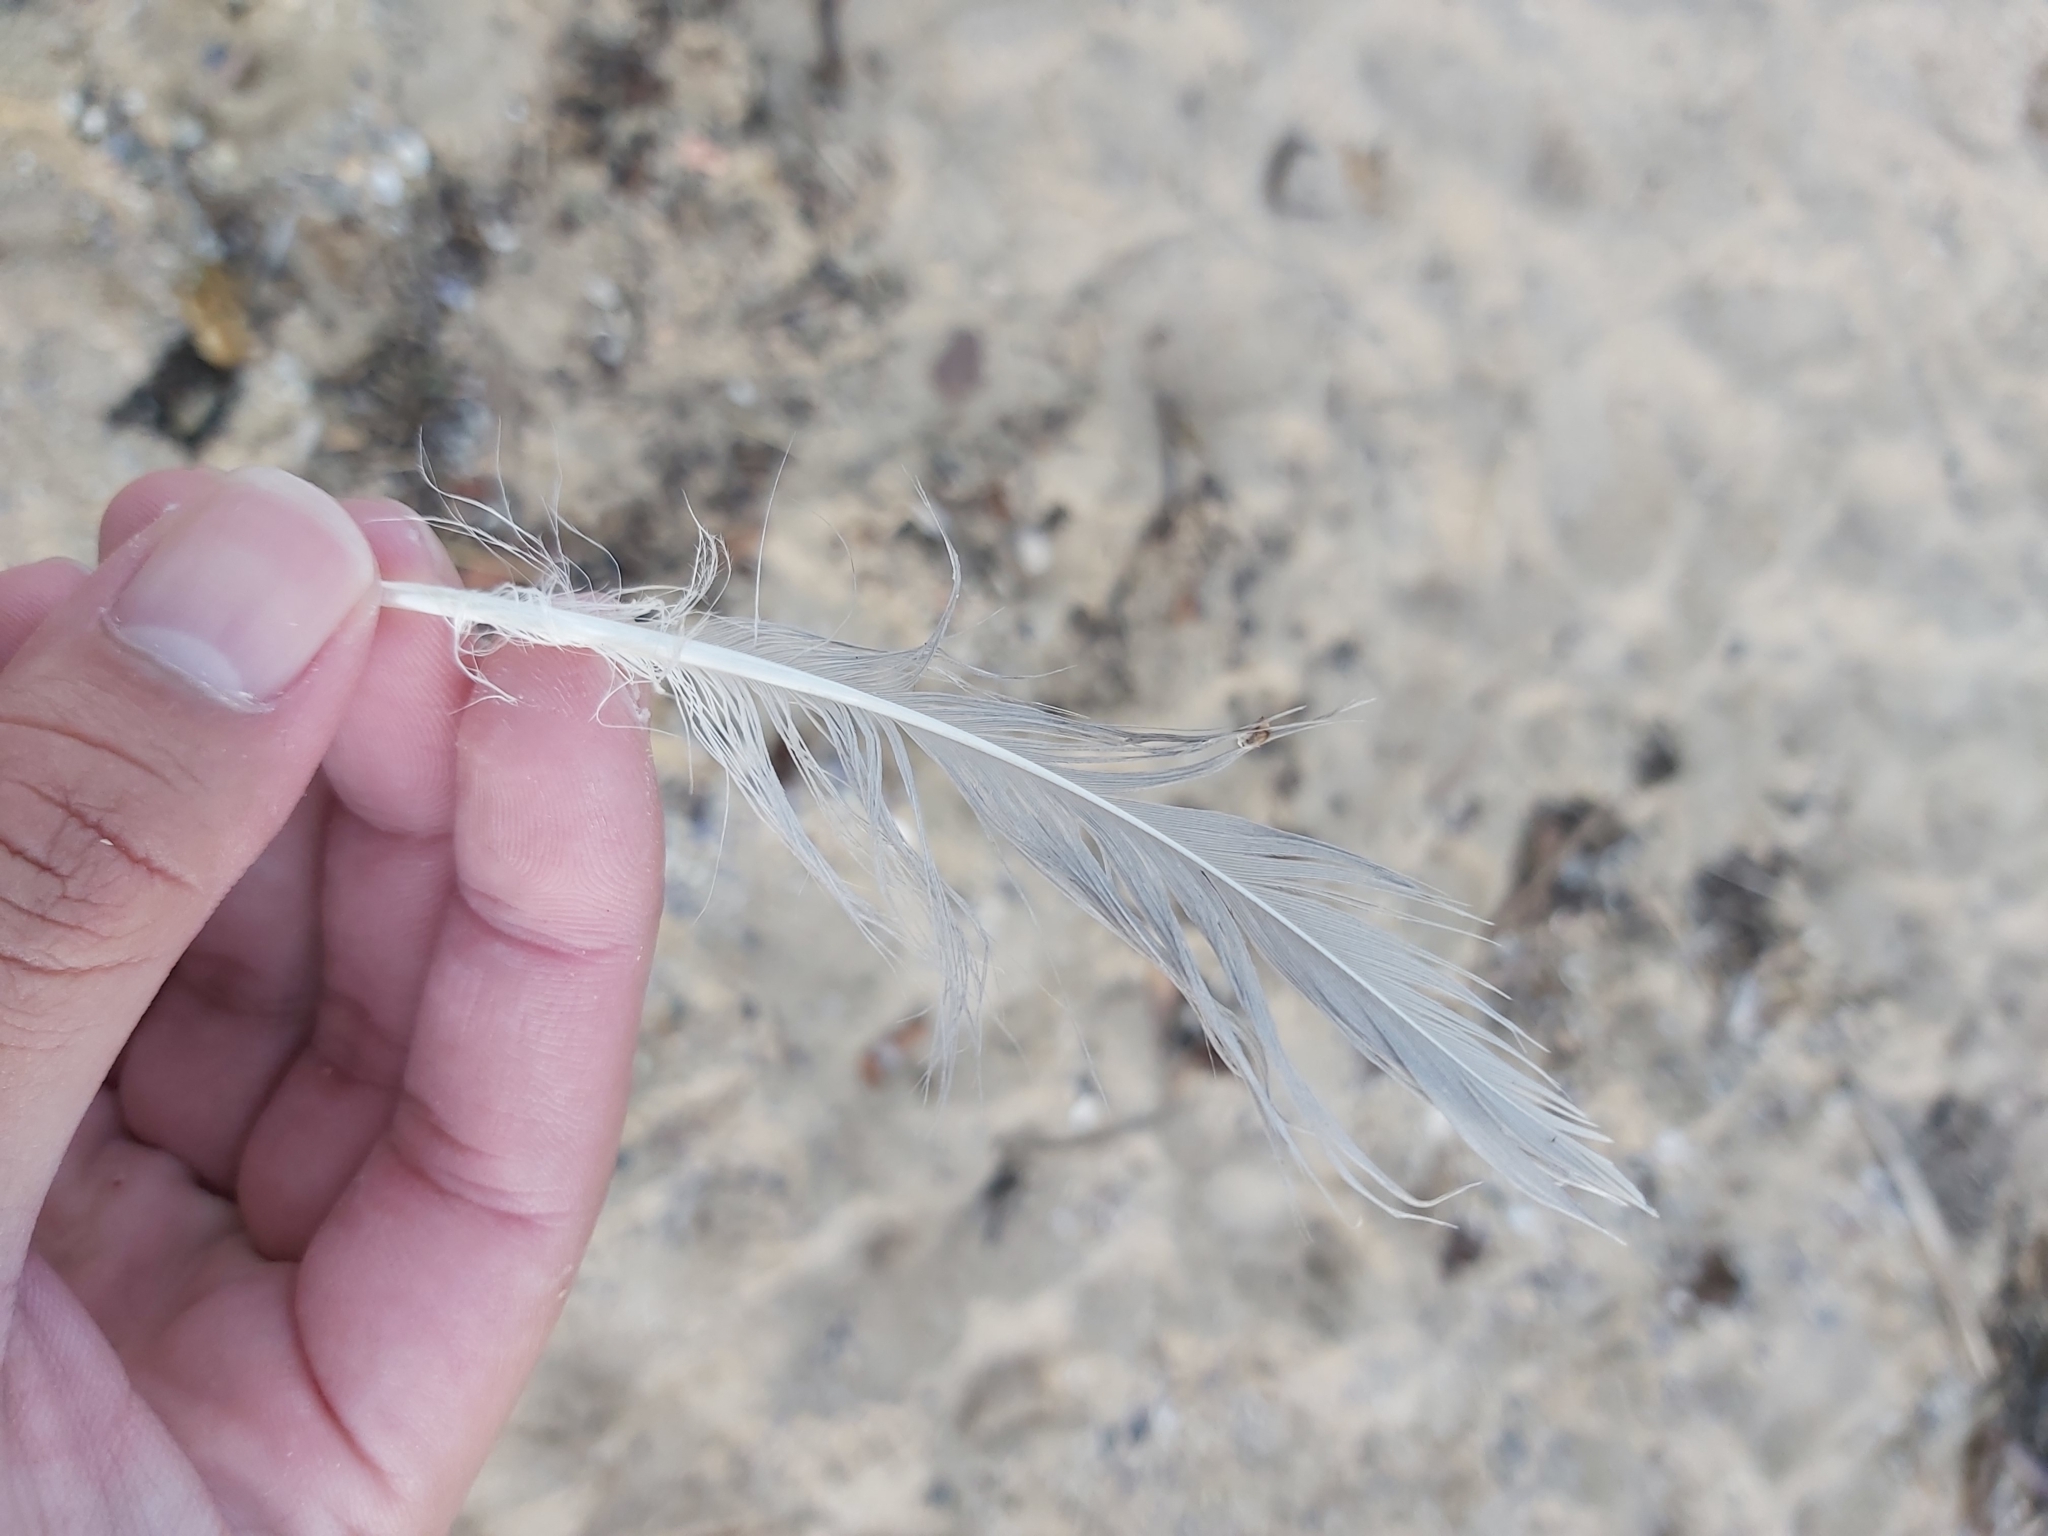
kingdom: Animalia
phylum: Chordata
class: Aves
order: Charadriiformes
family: Laridae
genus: Chroicocephalus
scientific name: Chroicocephalus novaehollandiae
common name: Silver gull
